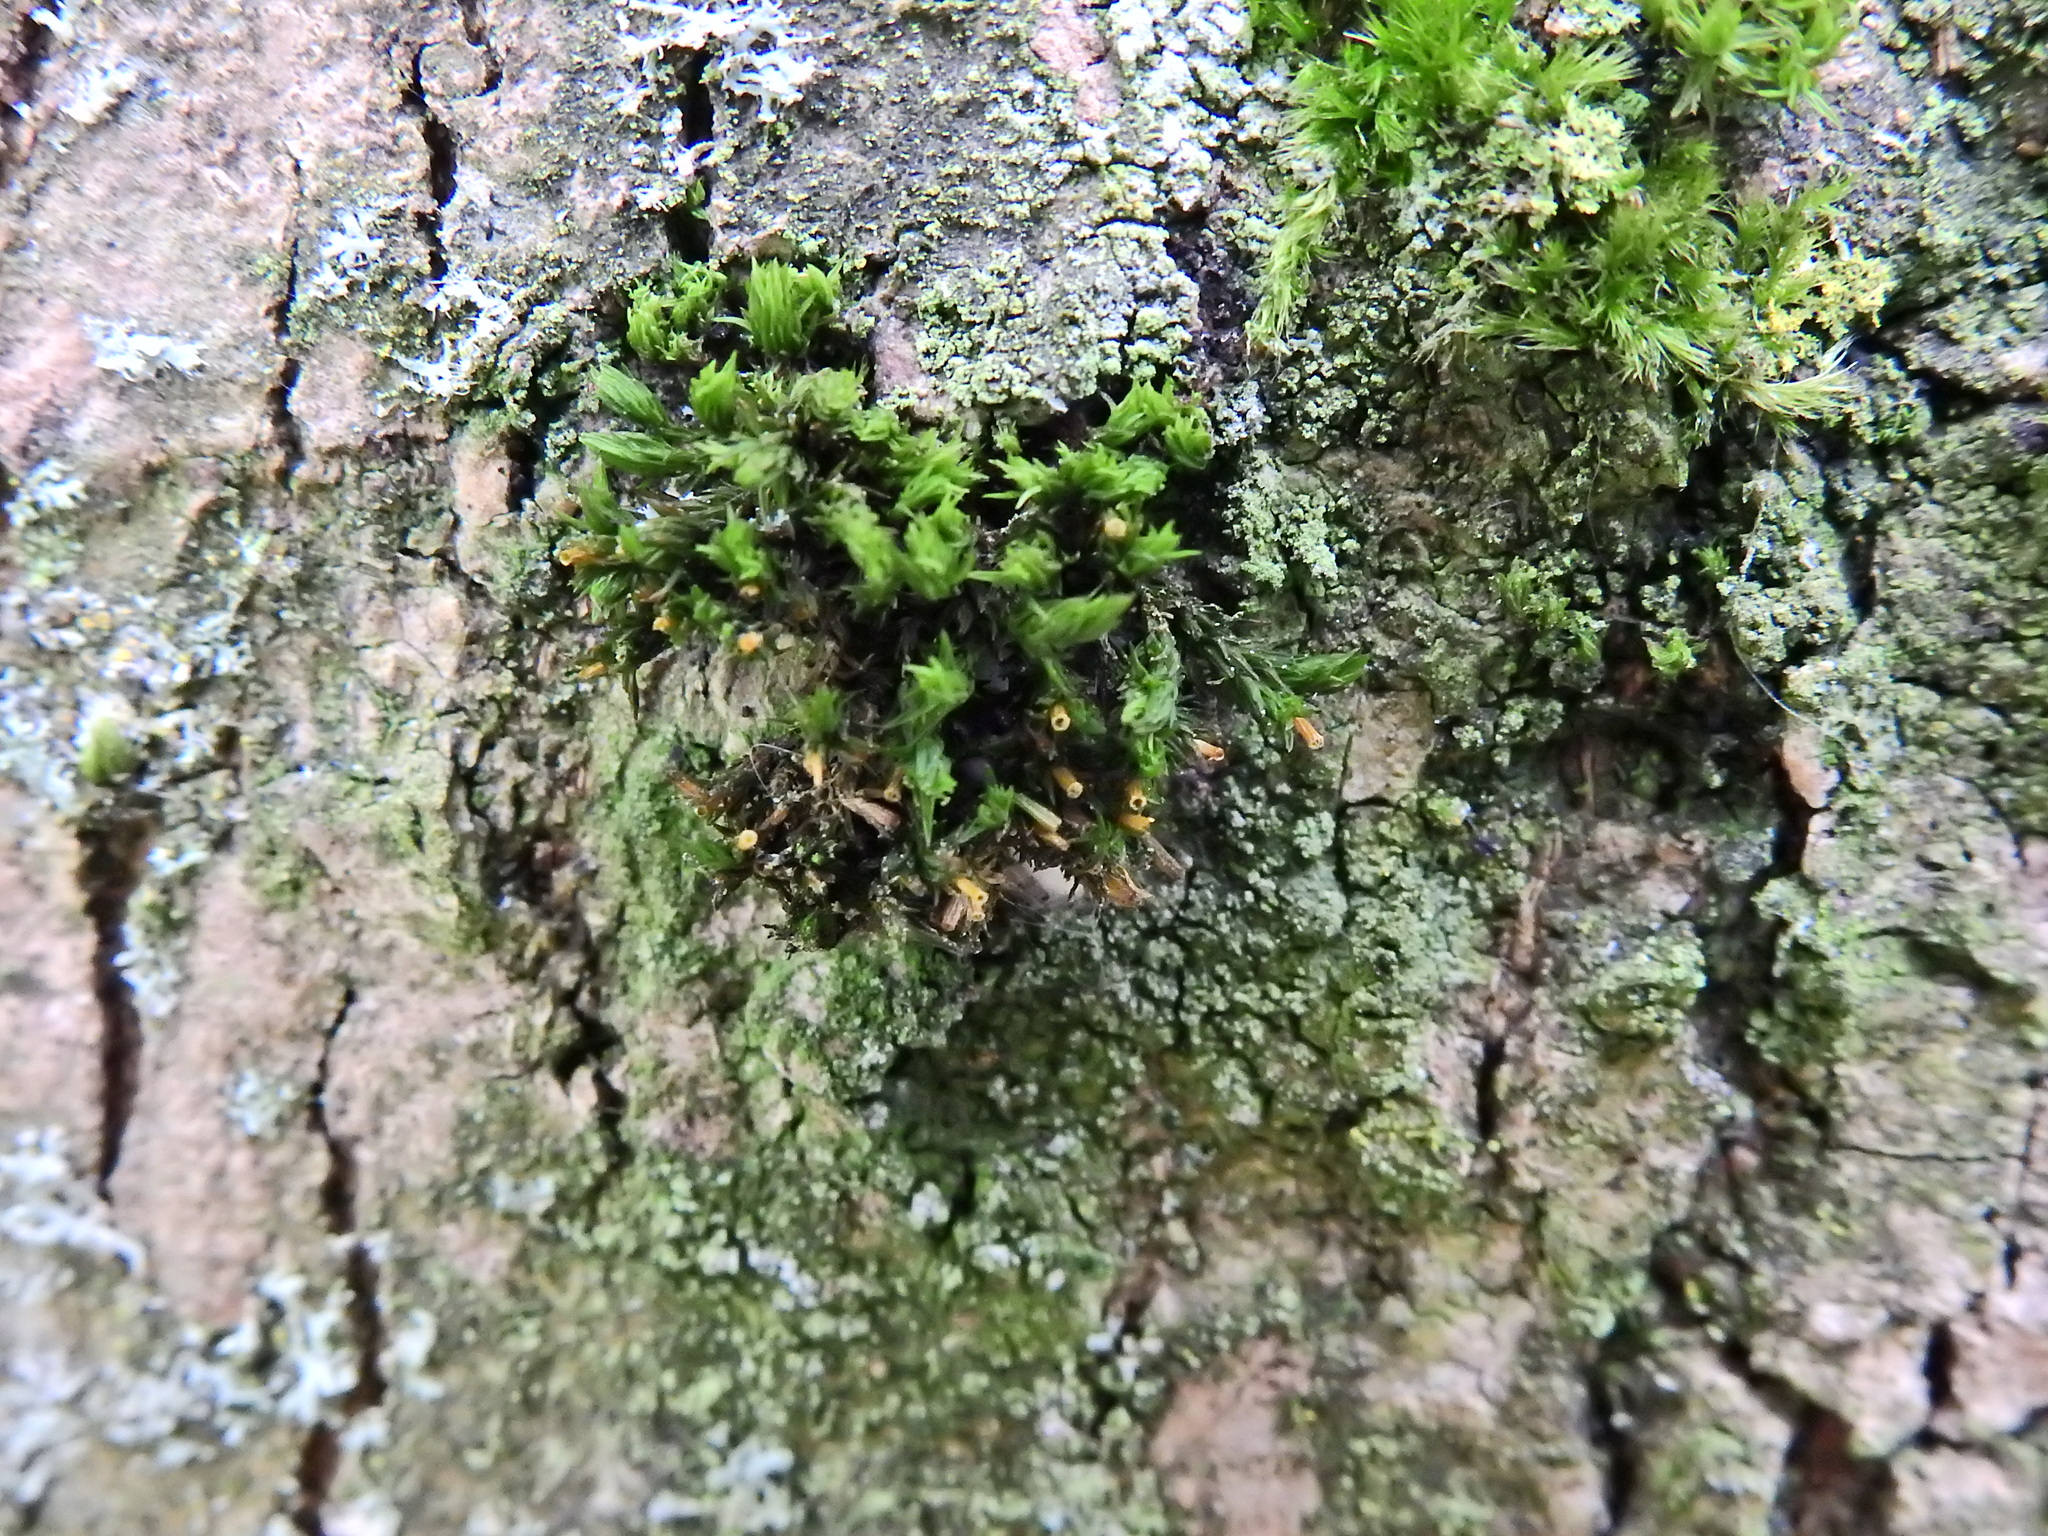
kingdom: Plantae
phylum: Bryophyta
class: Bryopsida
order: Orthotrichales
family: Orthotrichaceae
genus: Lewinskya
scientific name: Lewinskya affinis
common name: Wood bristle-moss
